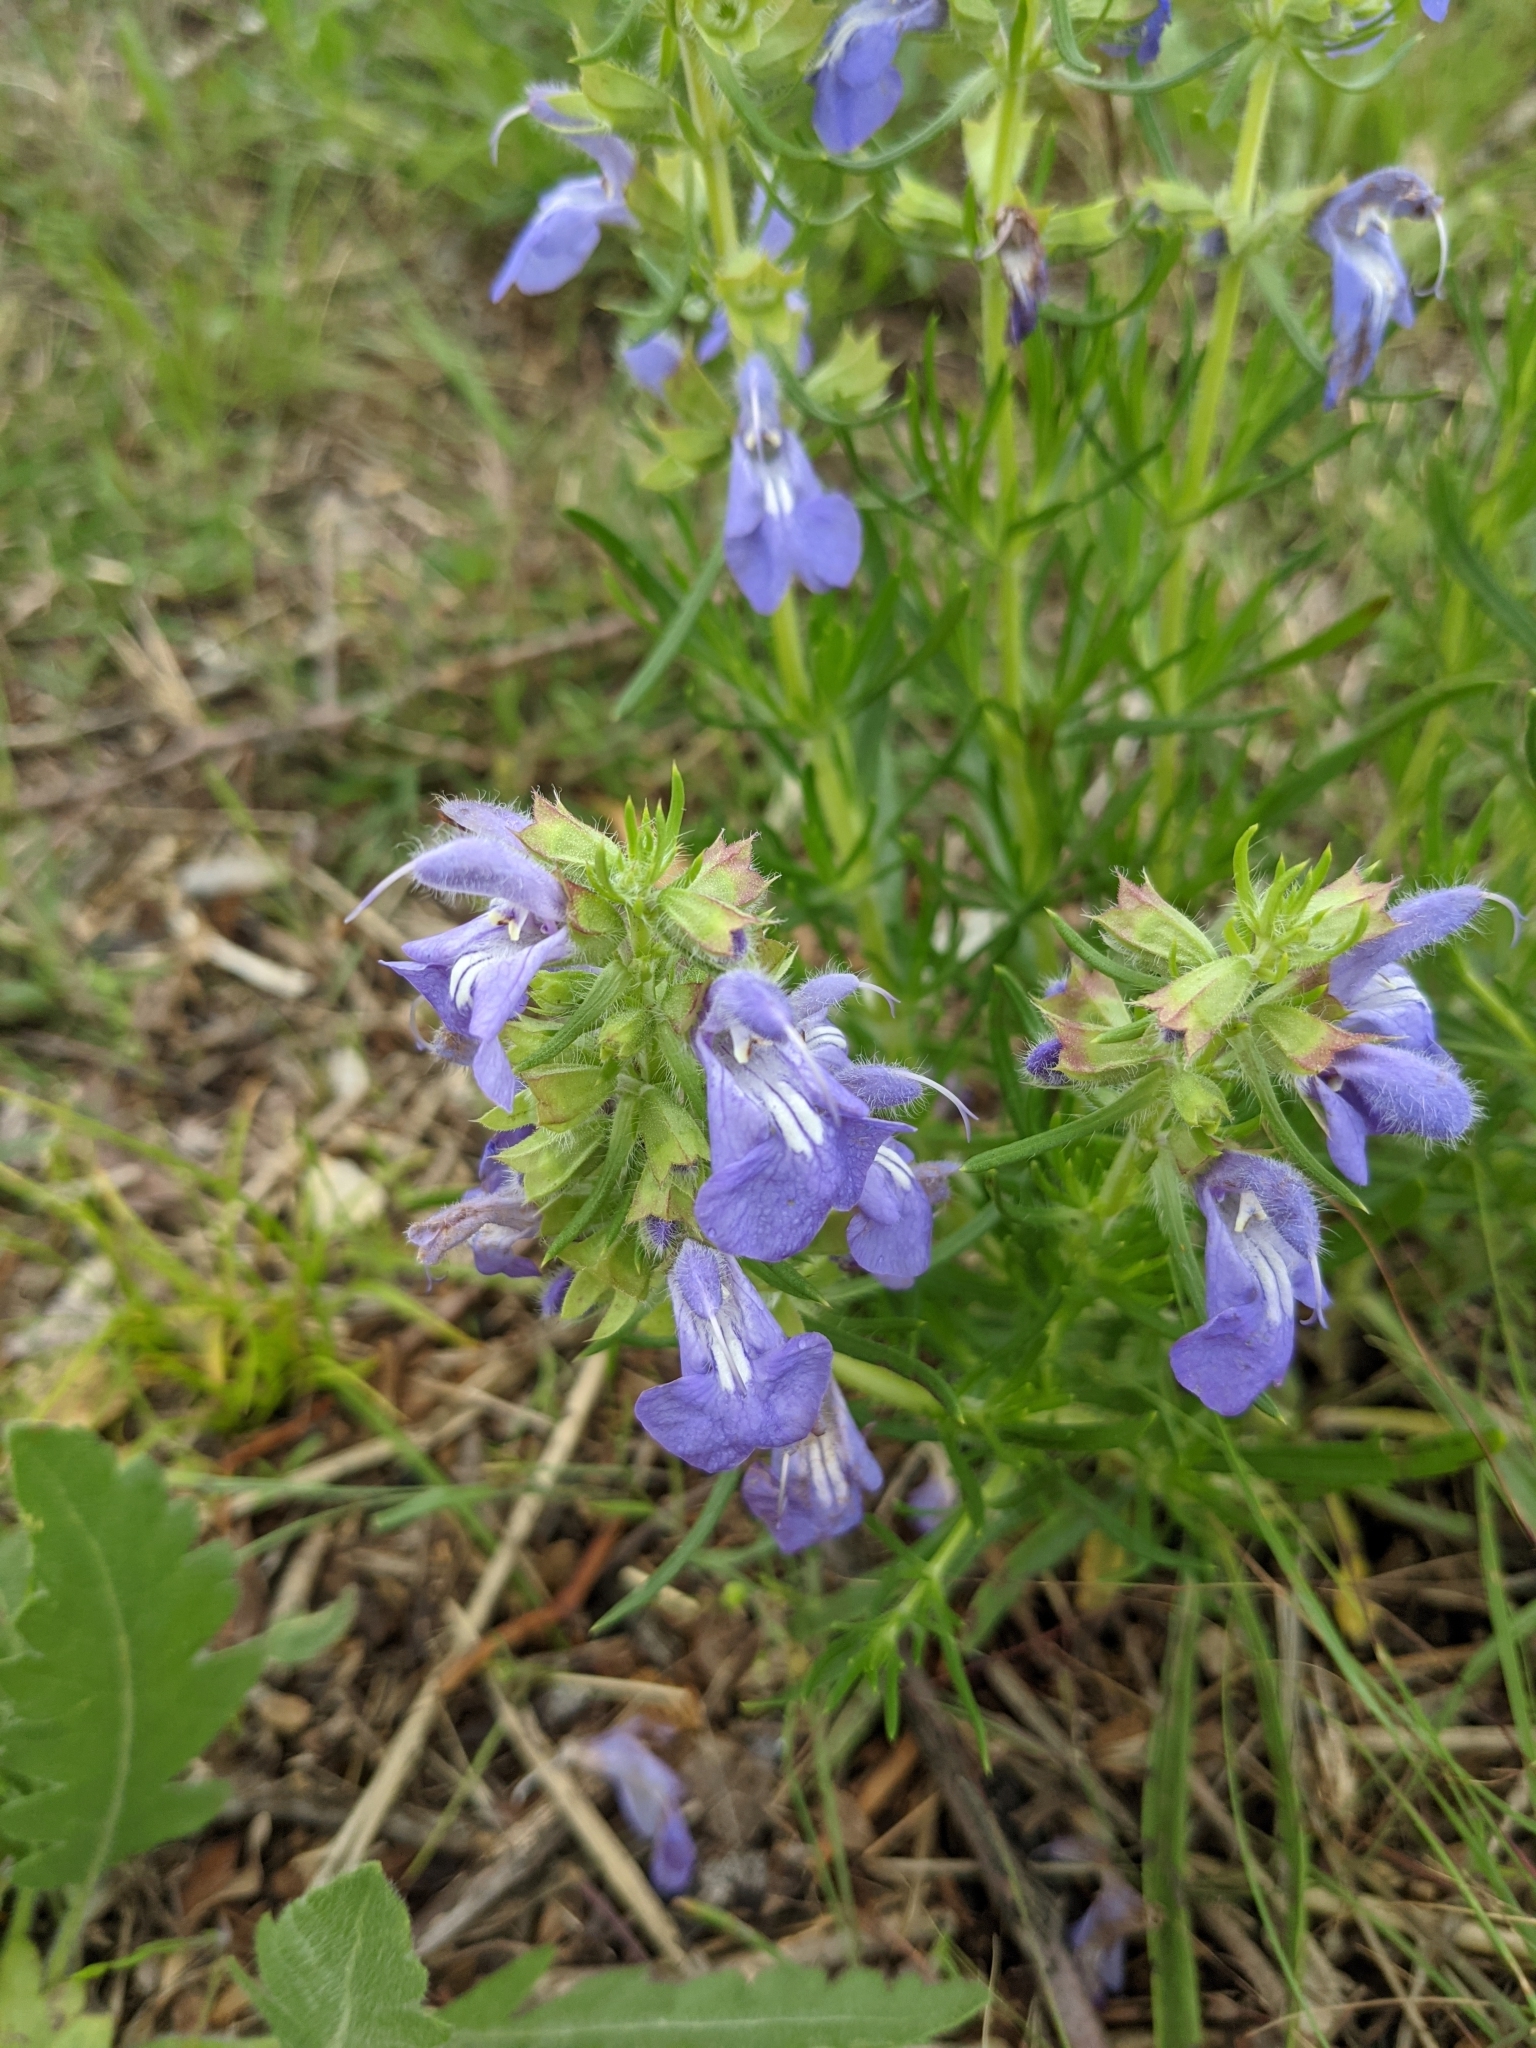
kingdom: Plantae
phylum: Tracheophyta
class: Magnoliopsida
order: Lamiales
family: Lamiaceae
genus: Salvia
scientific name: Salvia engelmannii
